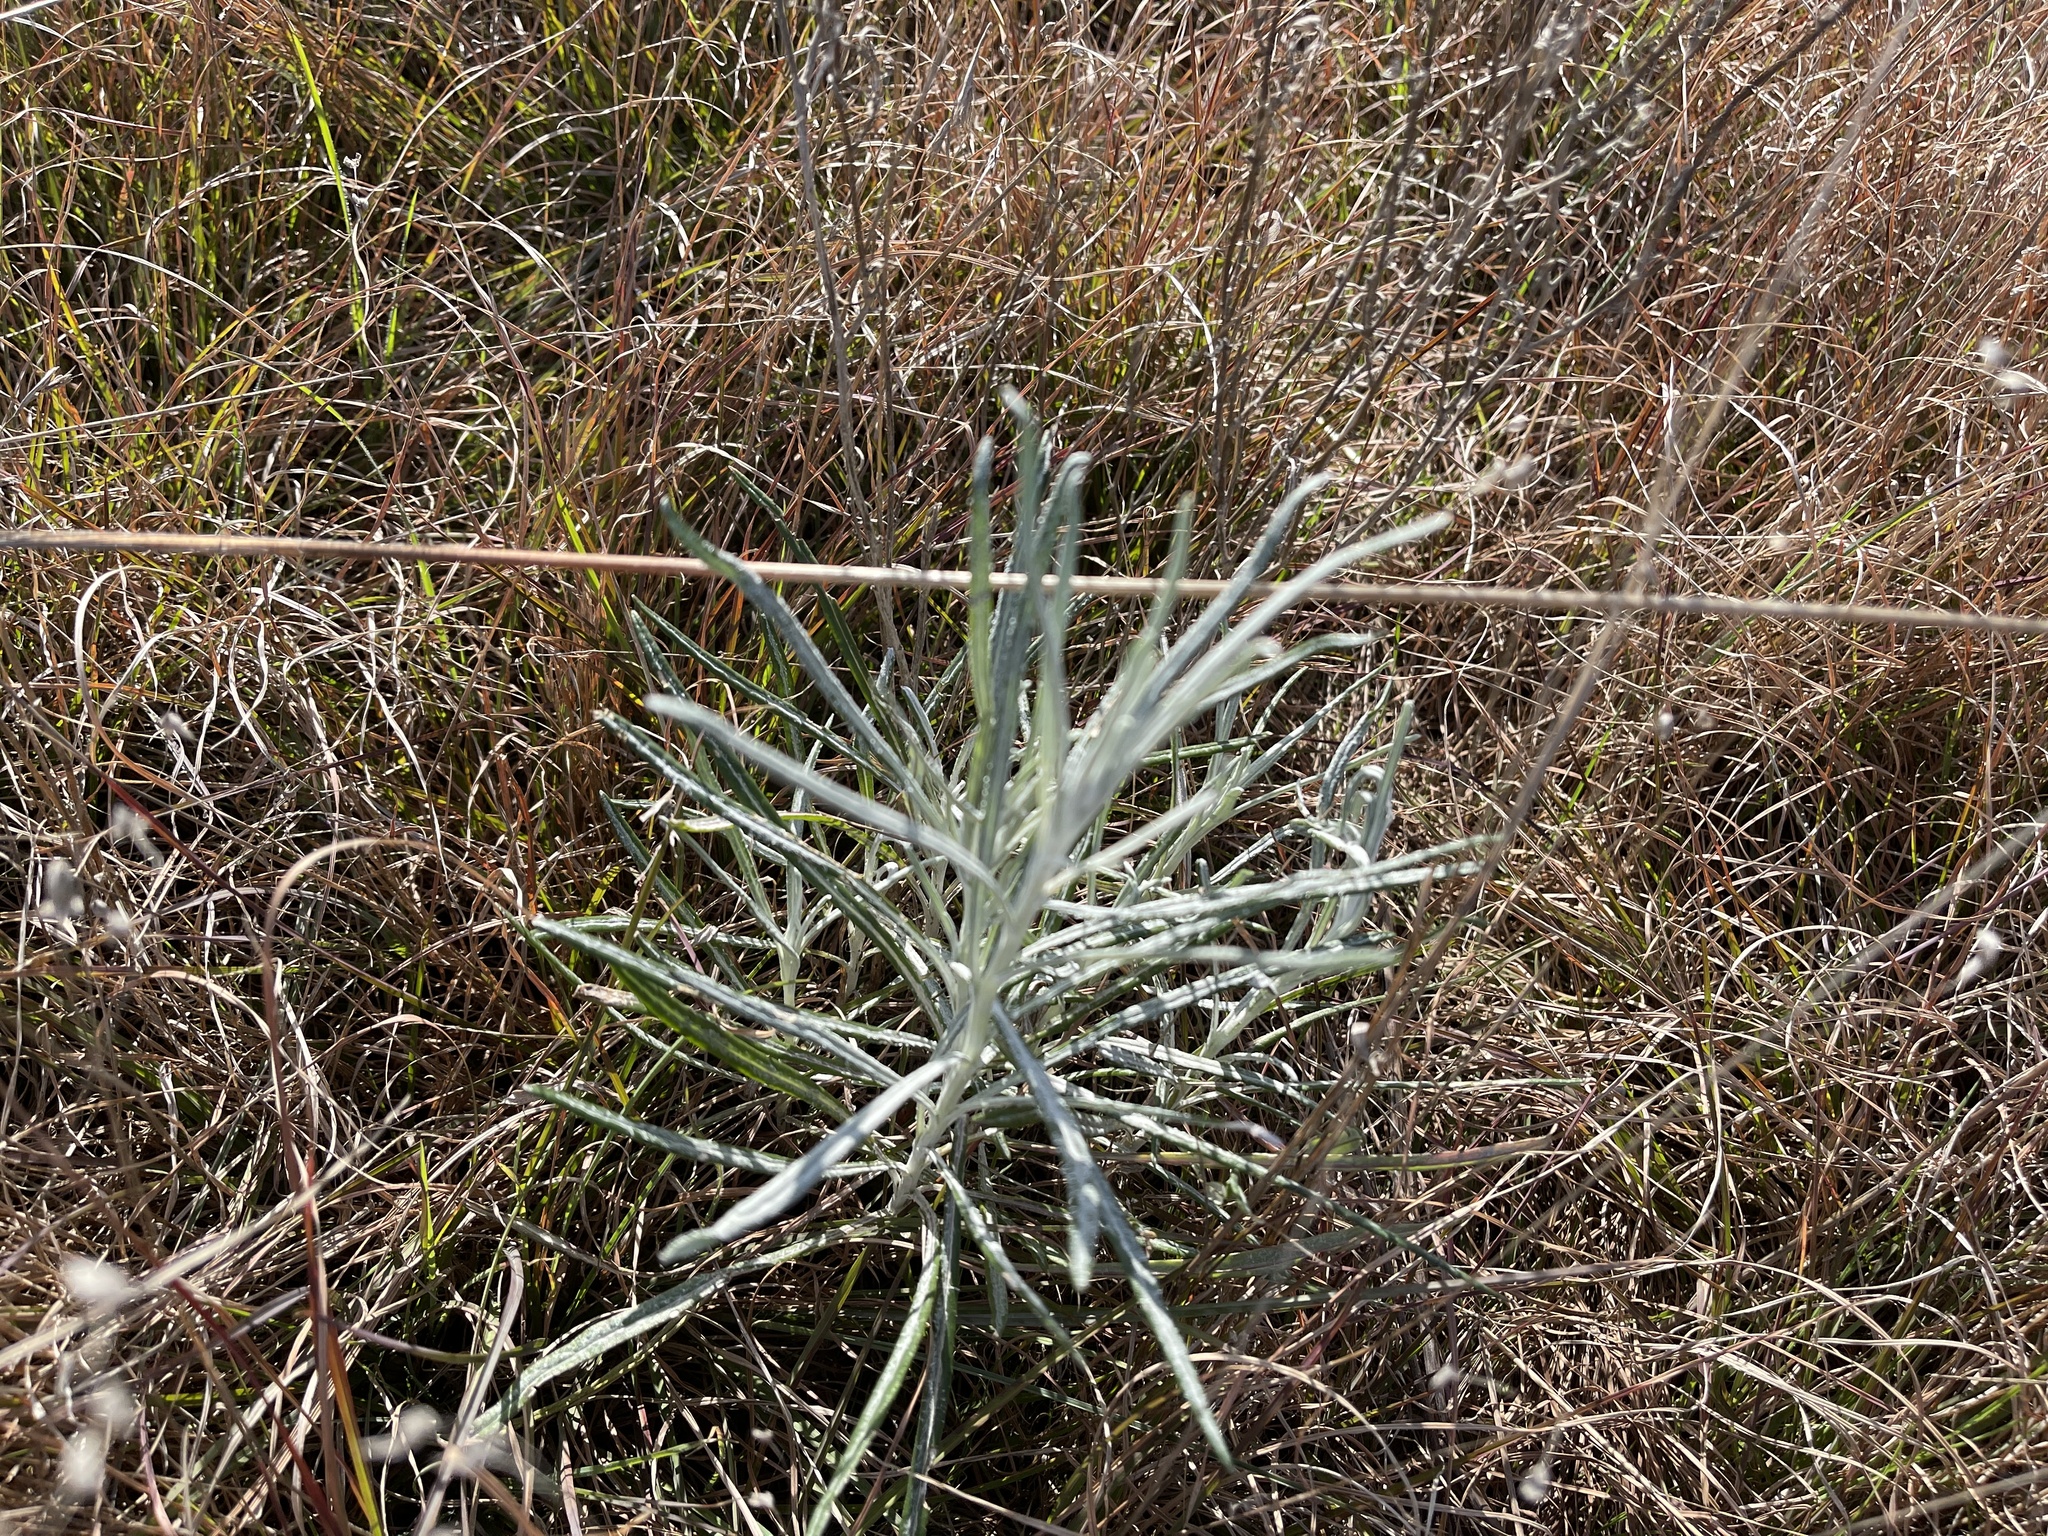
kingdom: Plantae
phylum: Tracheophyta
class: Magnoliopsida
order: Asterales
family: Asteraceae
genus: Senecio
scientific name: Senecio quadridentatus
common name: Cotton fireweed
